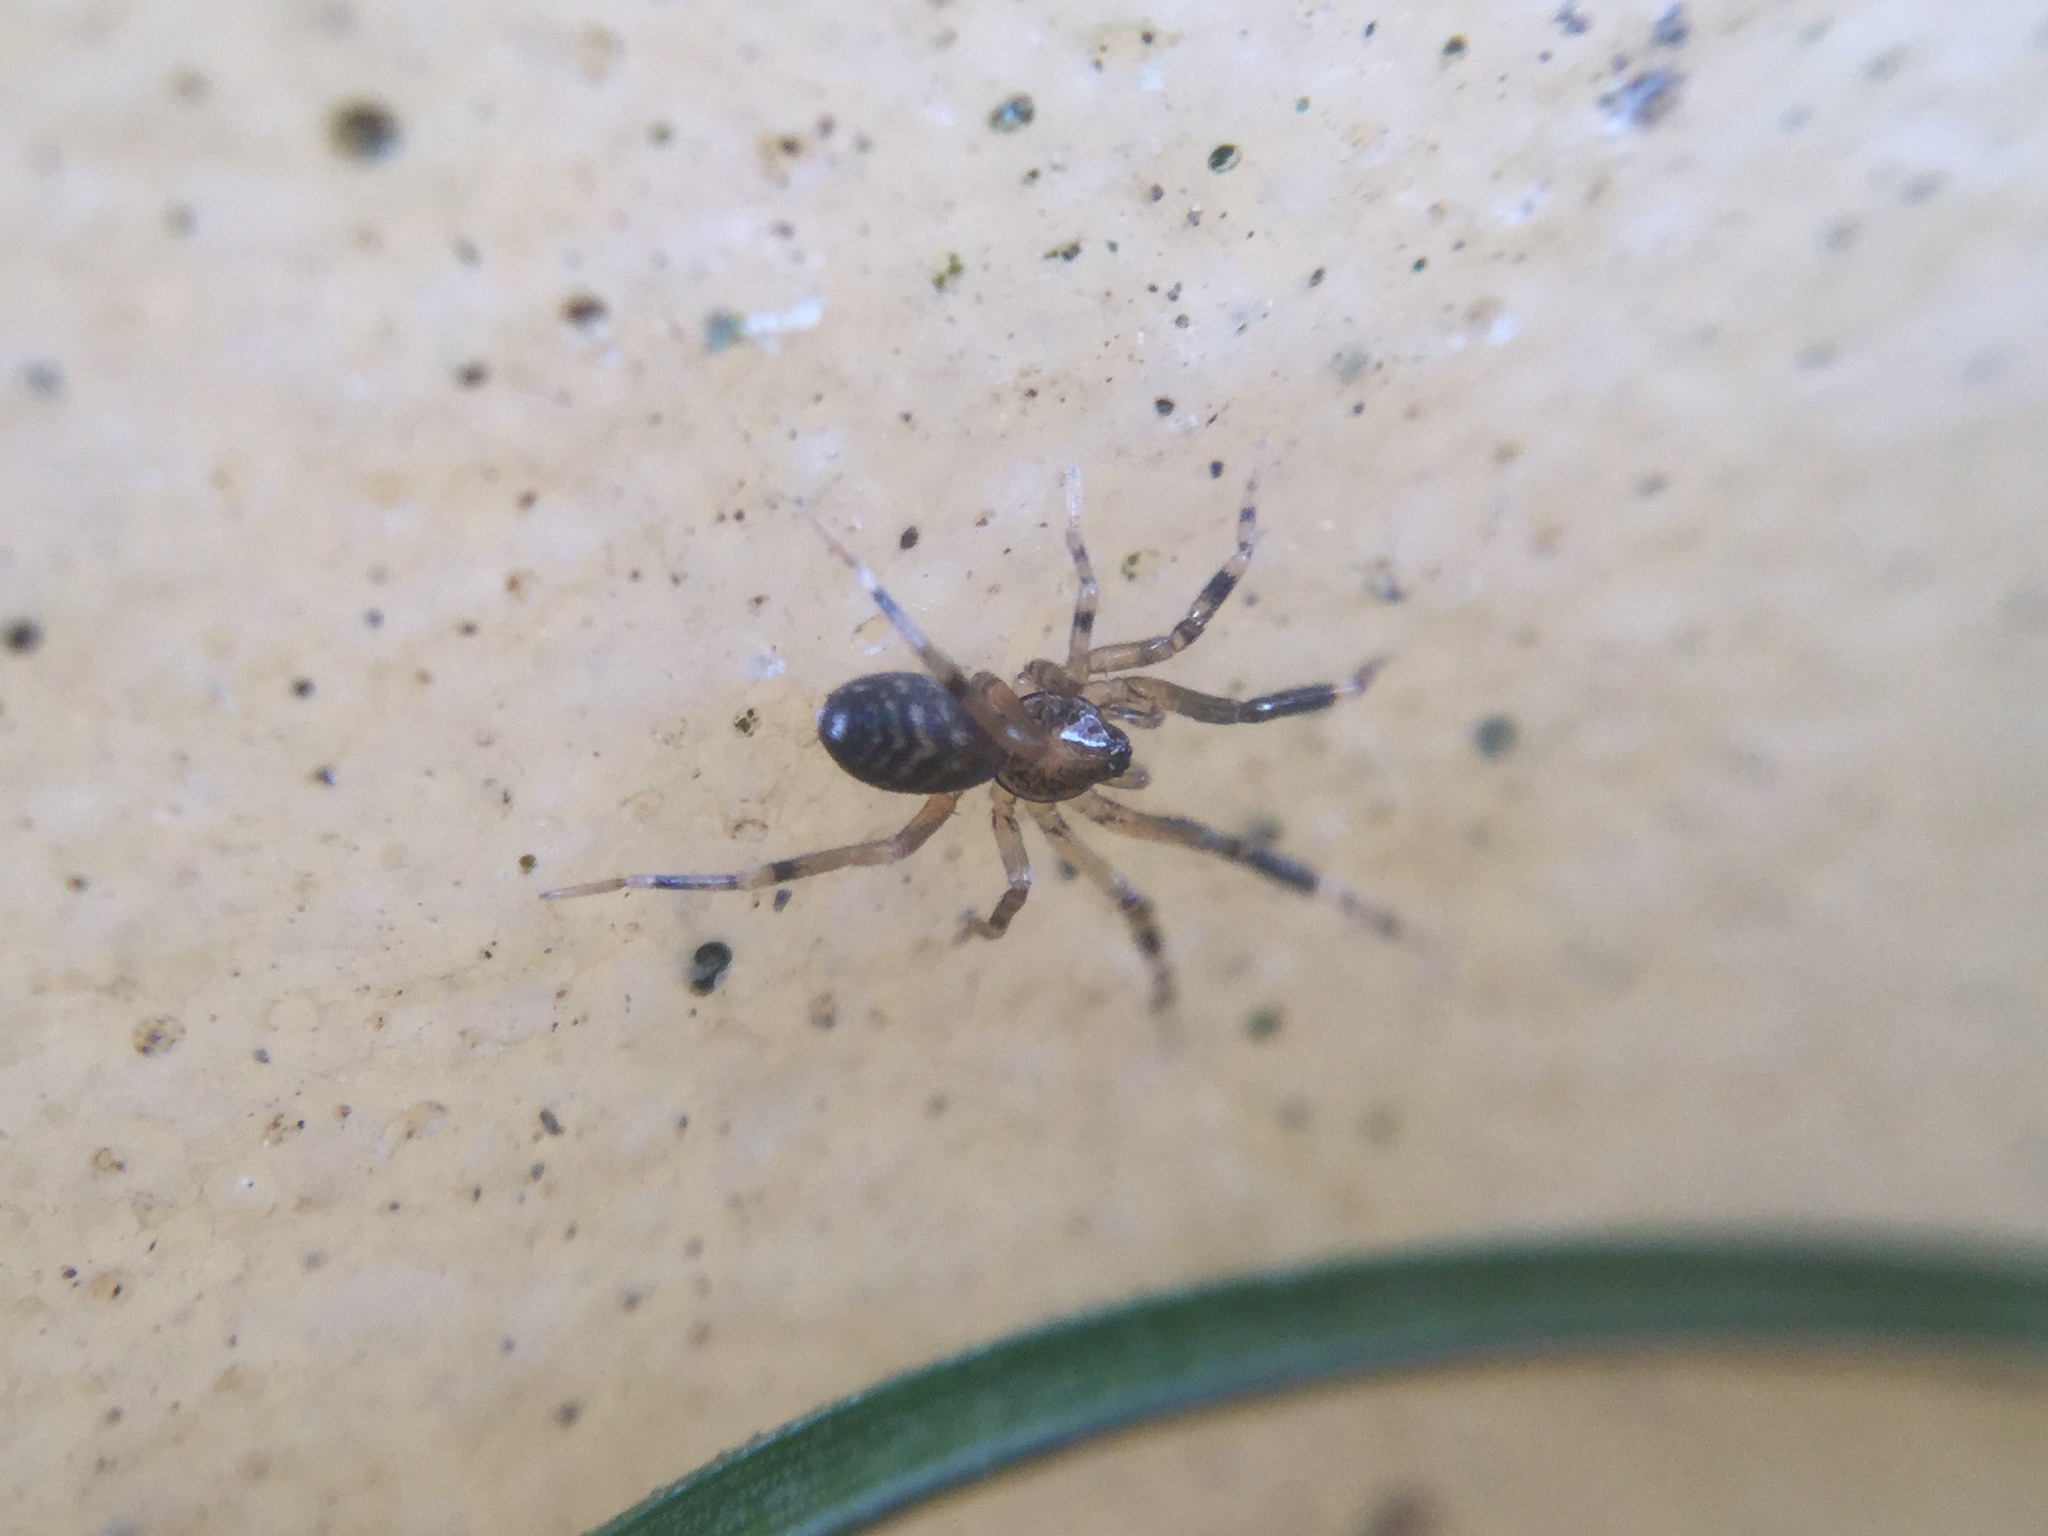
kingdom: Animalia
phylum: Arthropoda
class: Arachnida
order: Araneae
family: Phrurolithidae
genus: Phrurotimpus
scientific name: Phrurotimpus borealis
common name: Greater ant-mimic corinne spider
